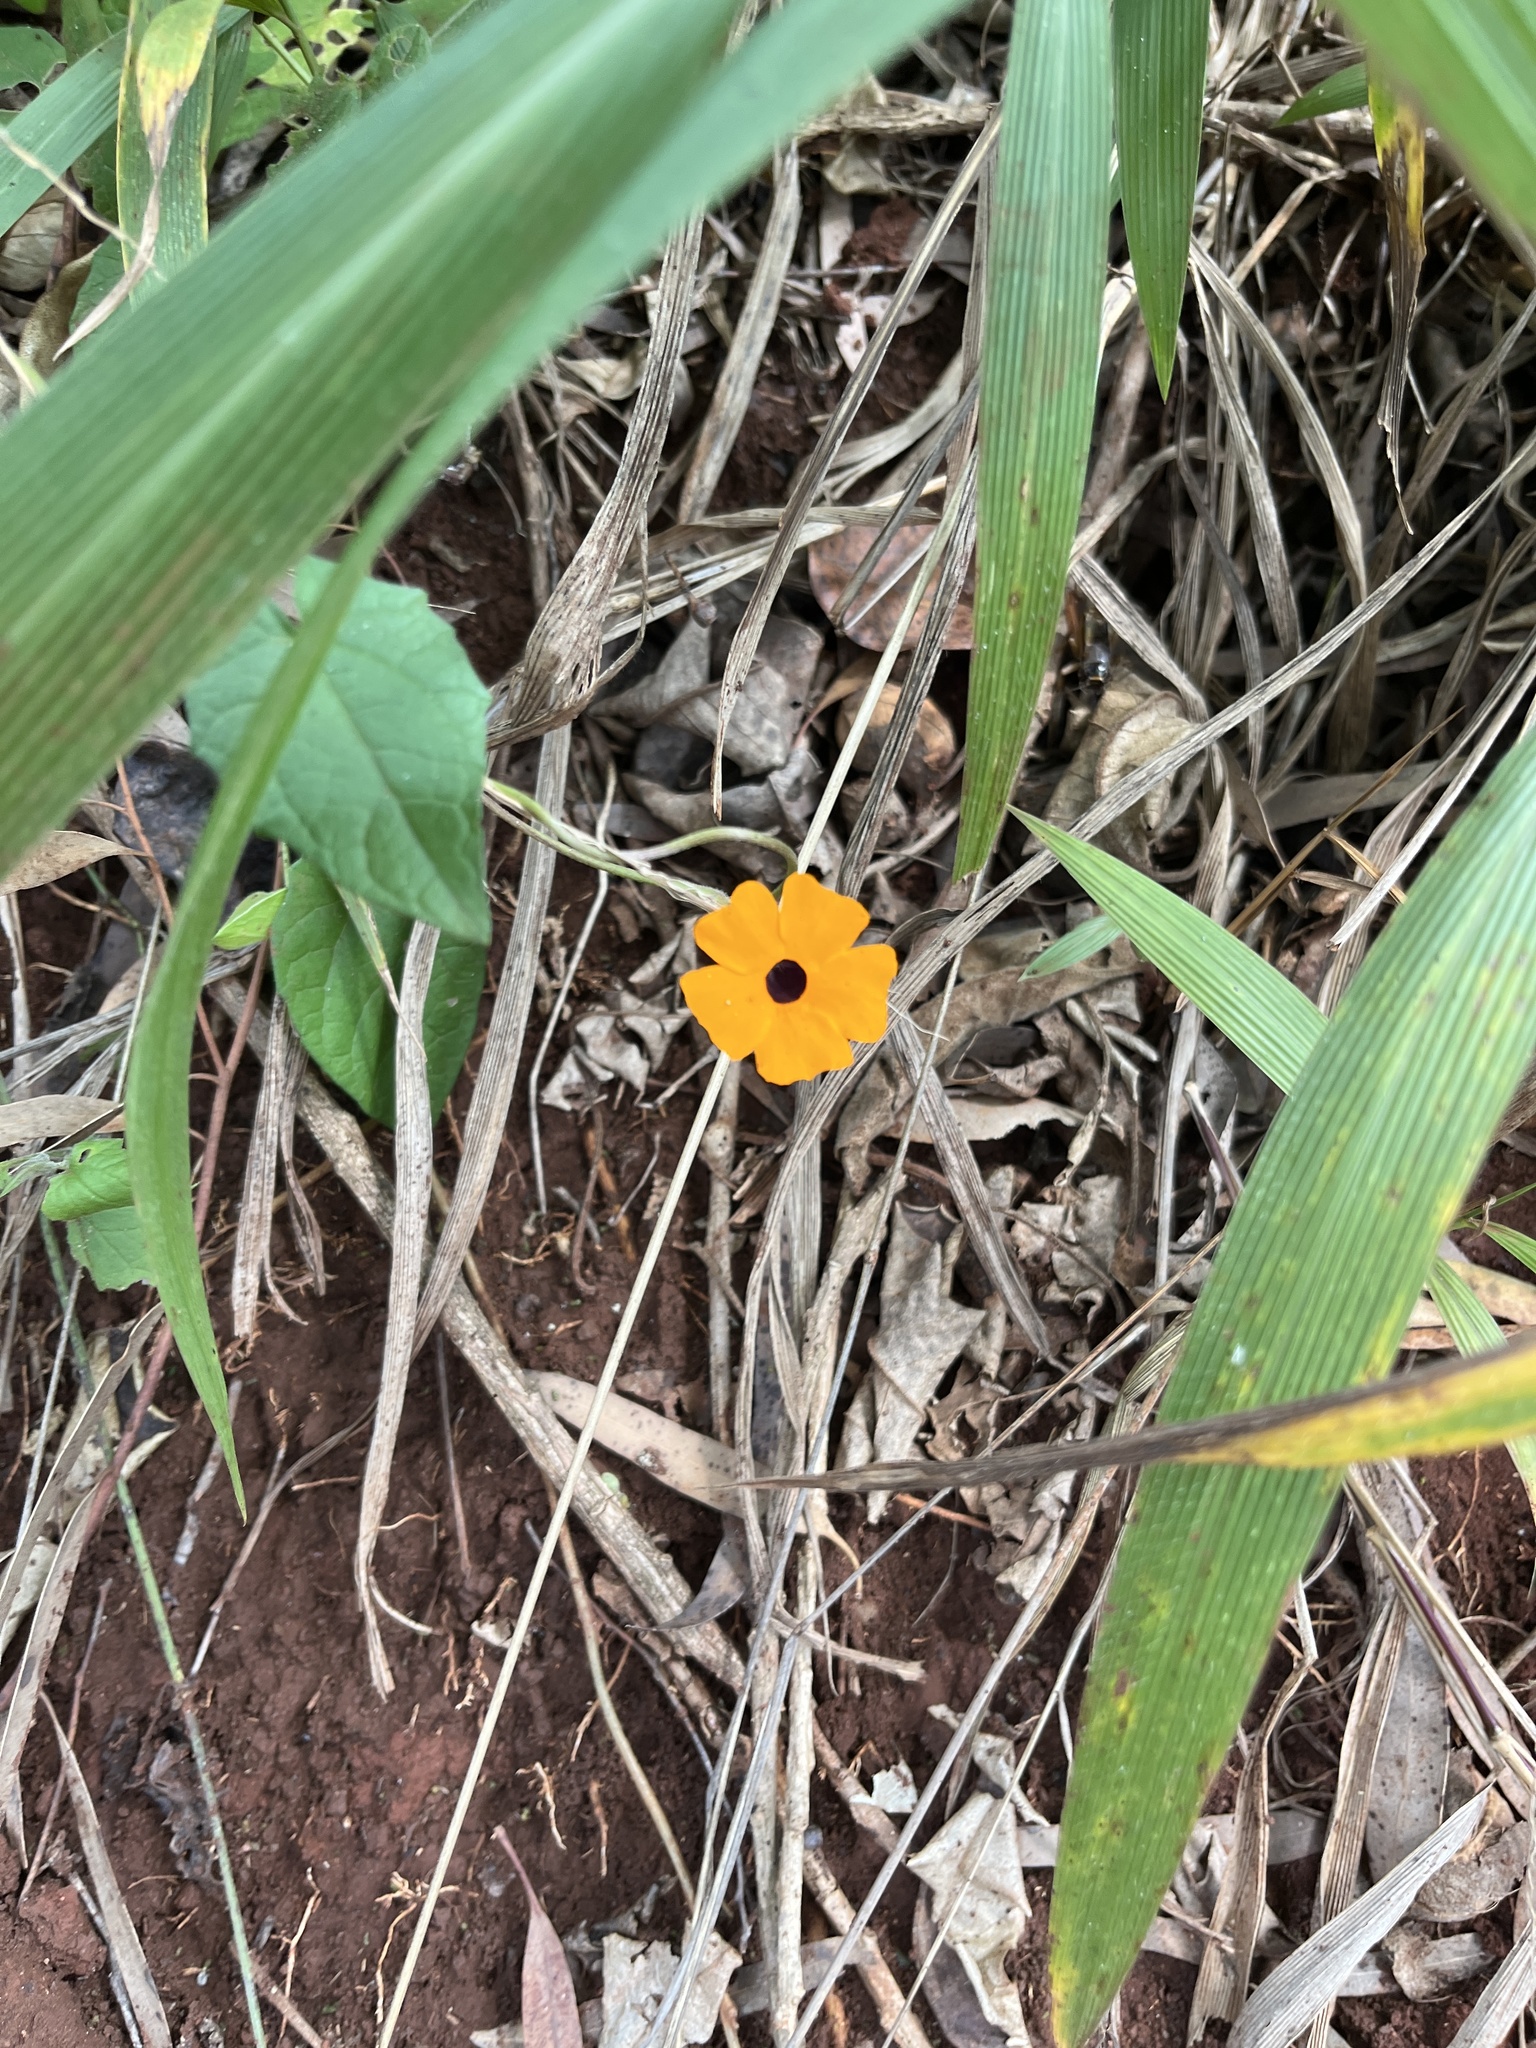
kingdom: Plantae
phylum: Tracheophyta
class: Magnoliopsida
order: Lamiales
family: Acanthaceae
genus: Thunbergia
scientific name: Thunbergia alata
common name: Blackeyed susan vine
